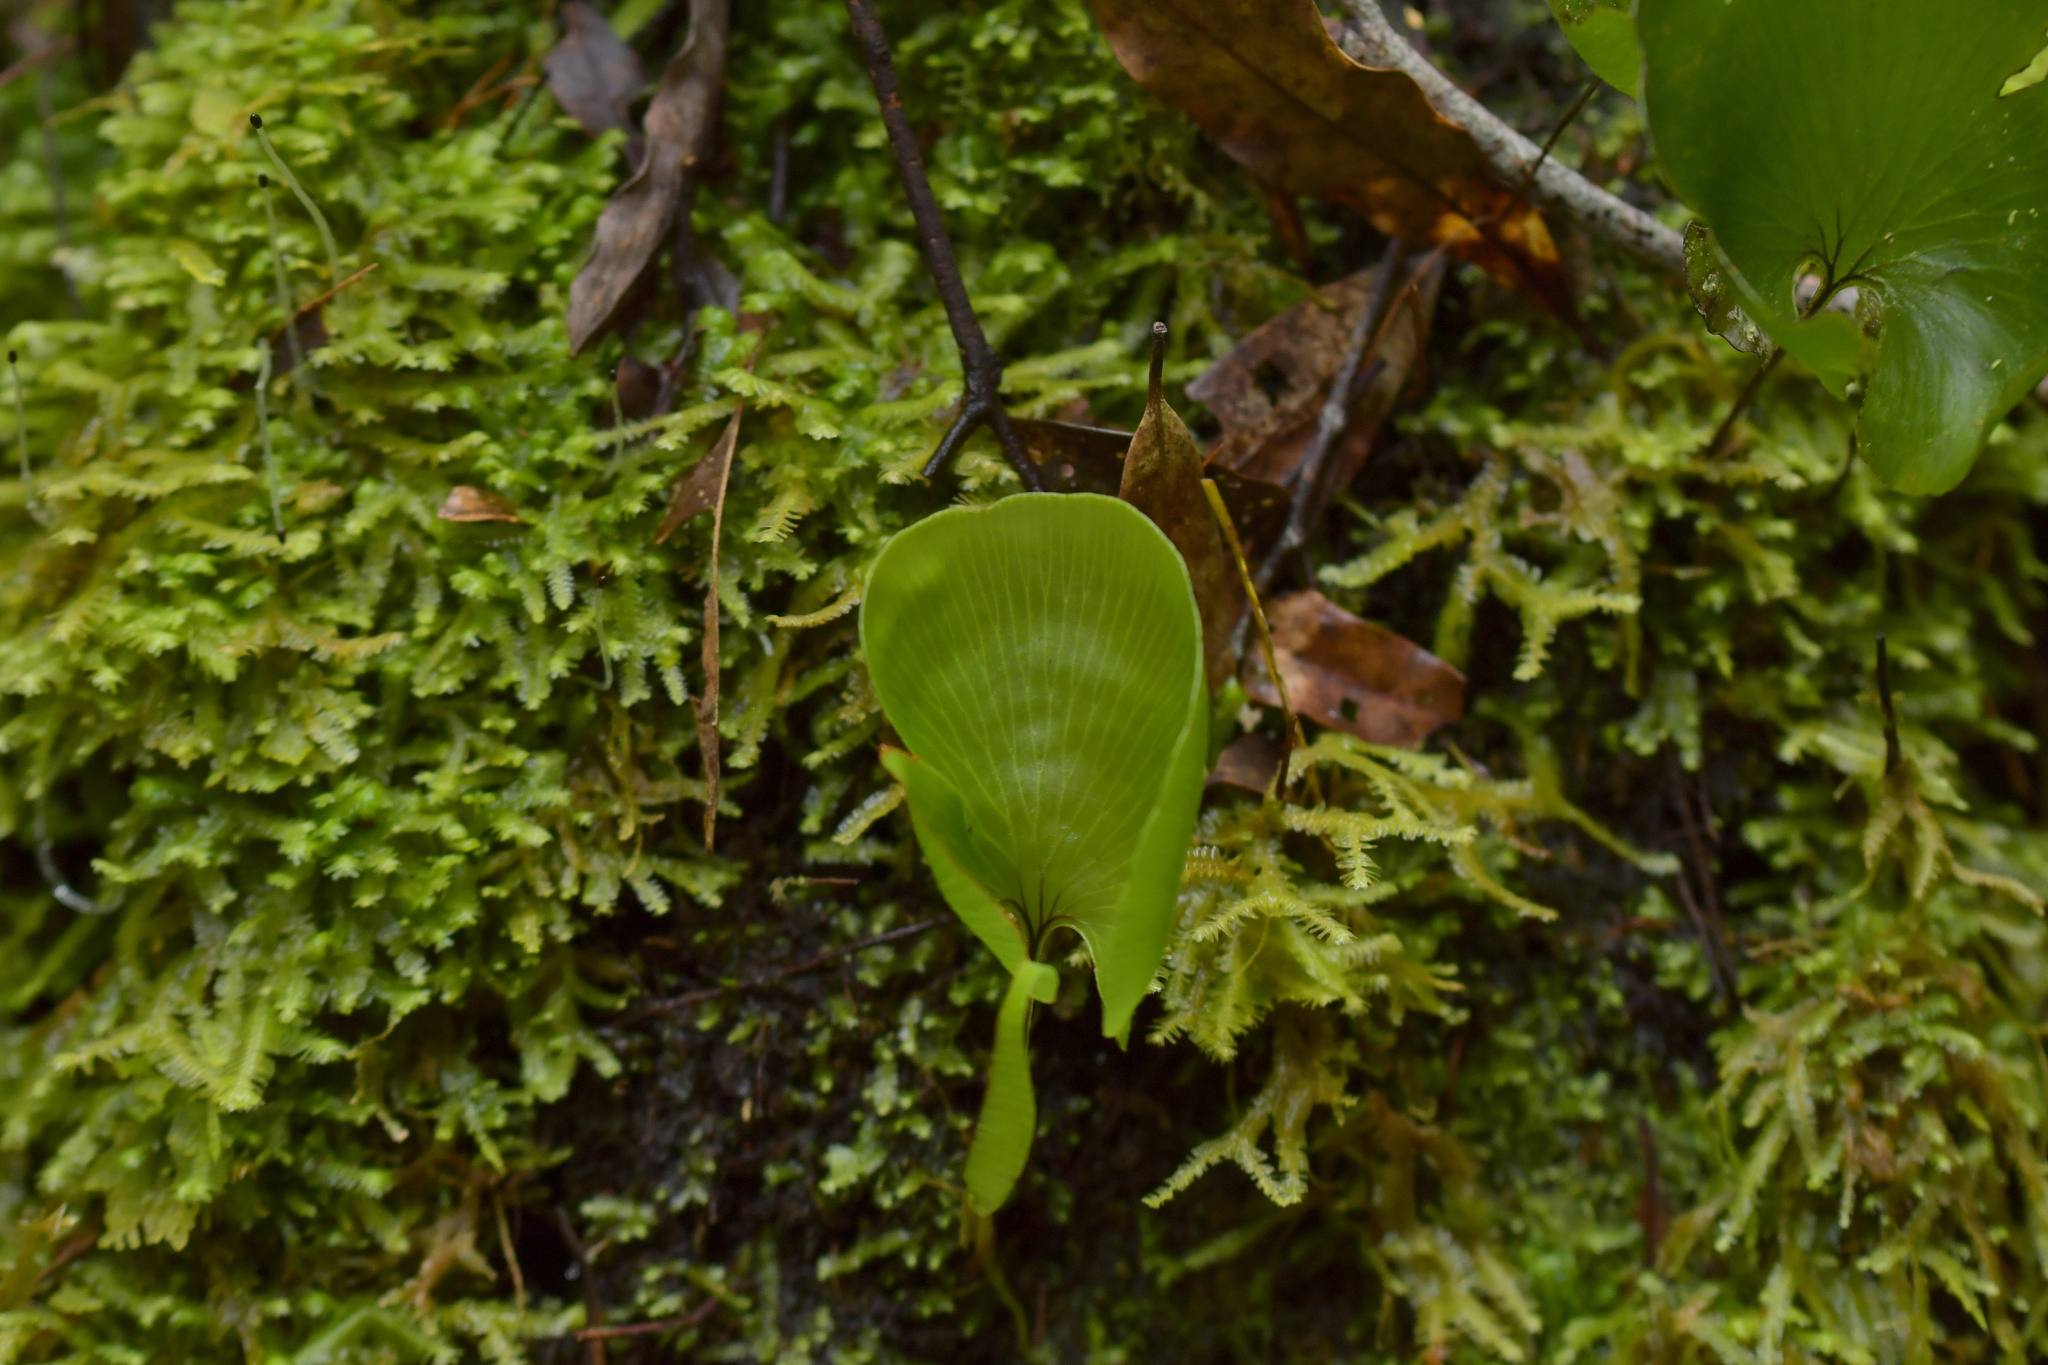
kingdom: Plantae
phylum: Tracheophyta
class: Polypodiopsida
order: Hymenophyllales
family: Hymenophyllaceae
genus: Hymenophyllum
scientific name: Hymenophyllum nephrophyllum
